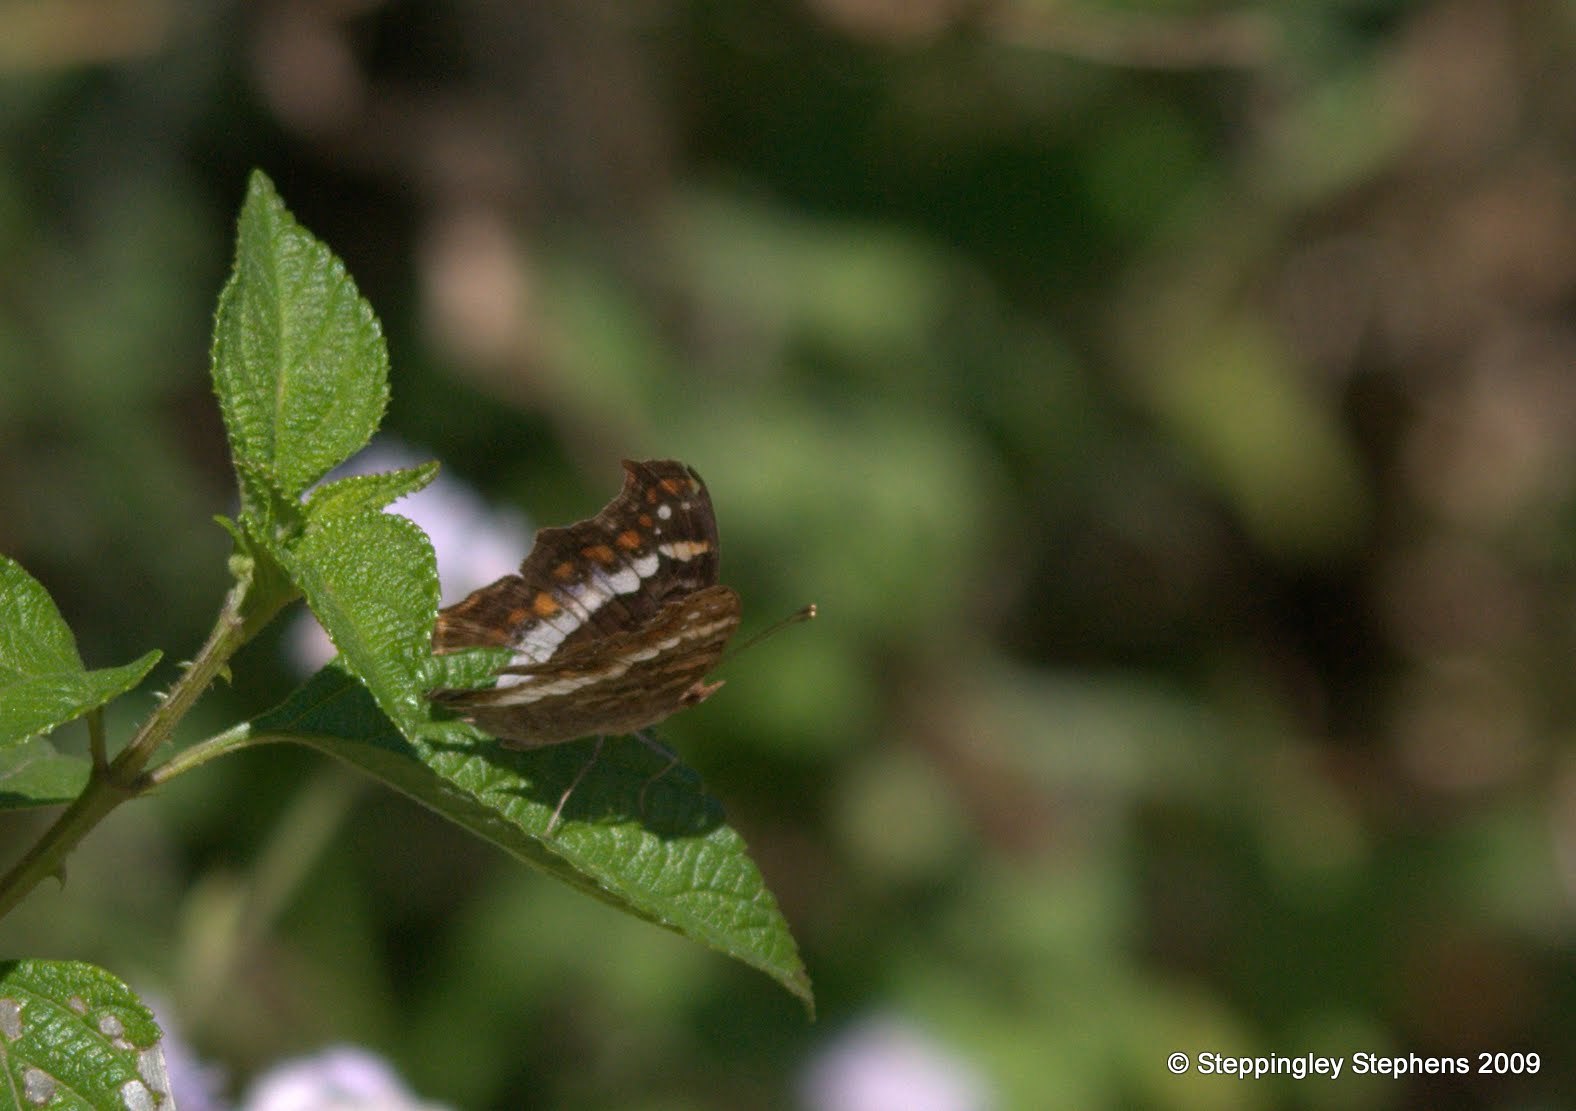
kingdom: Animalia
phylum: Arthropoda
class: Insecta
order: Lepidoptera
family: Nymphalidae
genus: Precis
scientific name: Precis andremiaja
